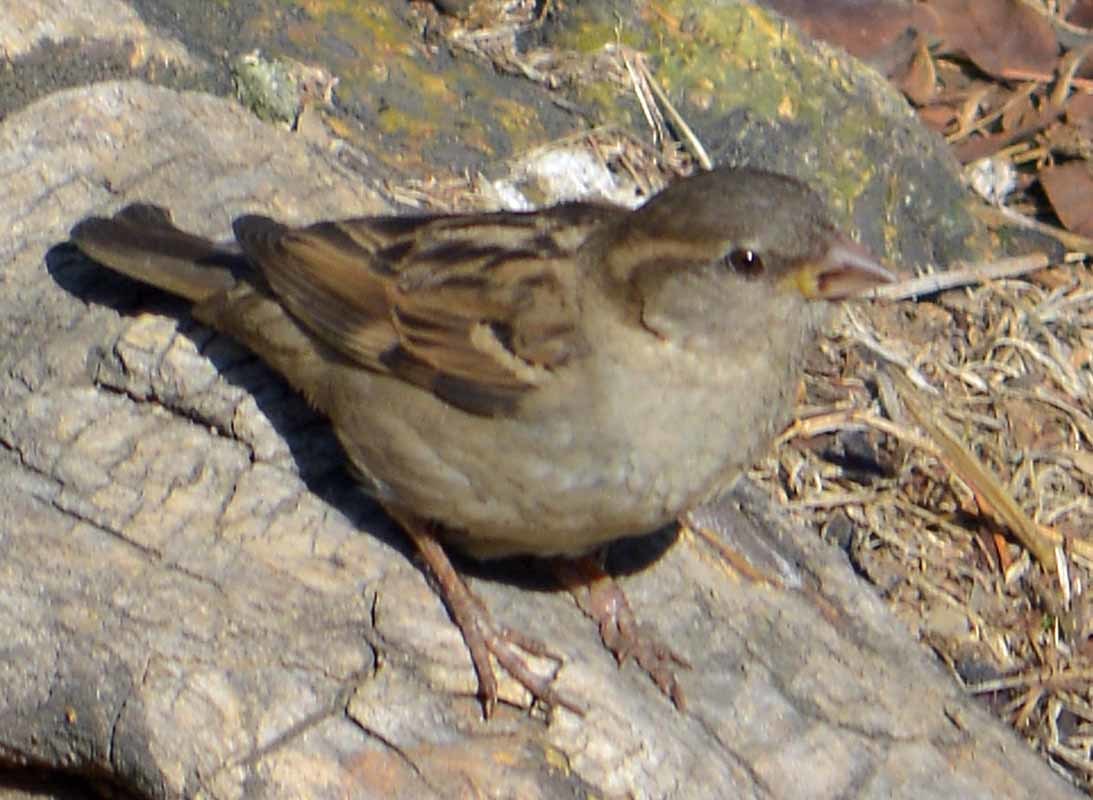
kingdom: Animalia
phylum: Chordata
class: Aves
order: Passeriformes
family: Passeridae
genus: Passer
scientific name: Passer domesticus
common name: House sparrow
